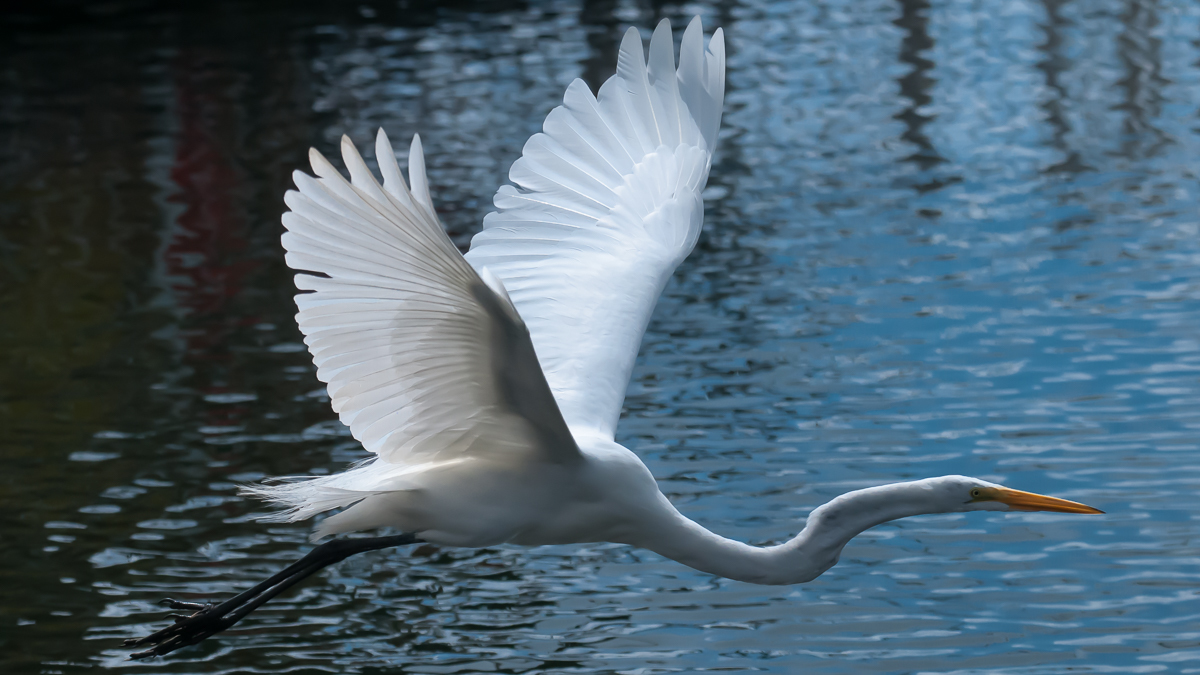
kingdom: Animalia
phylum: Chordata
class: Aves
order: Pelecaniformes
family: Ardeidae
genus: Ardea
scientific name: Ardea alba
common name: Great egret
